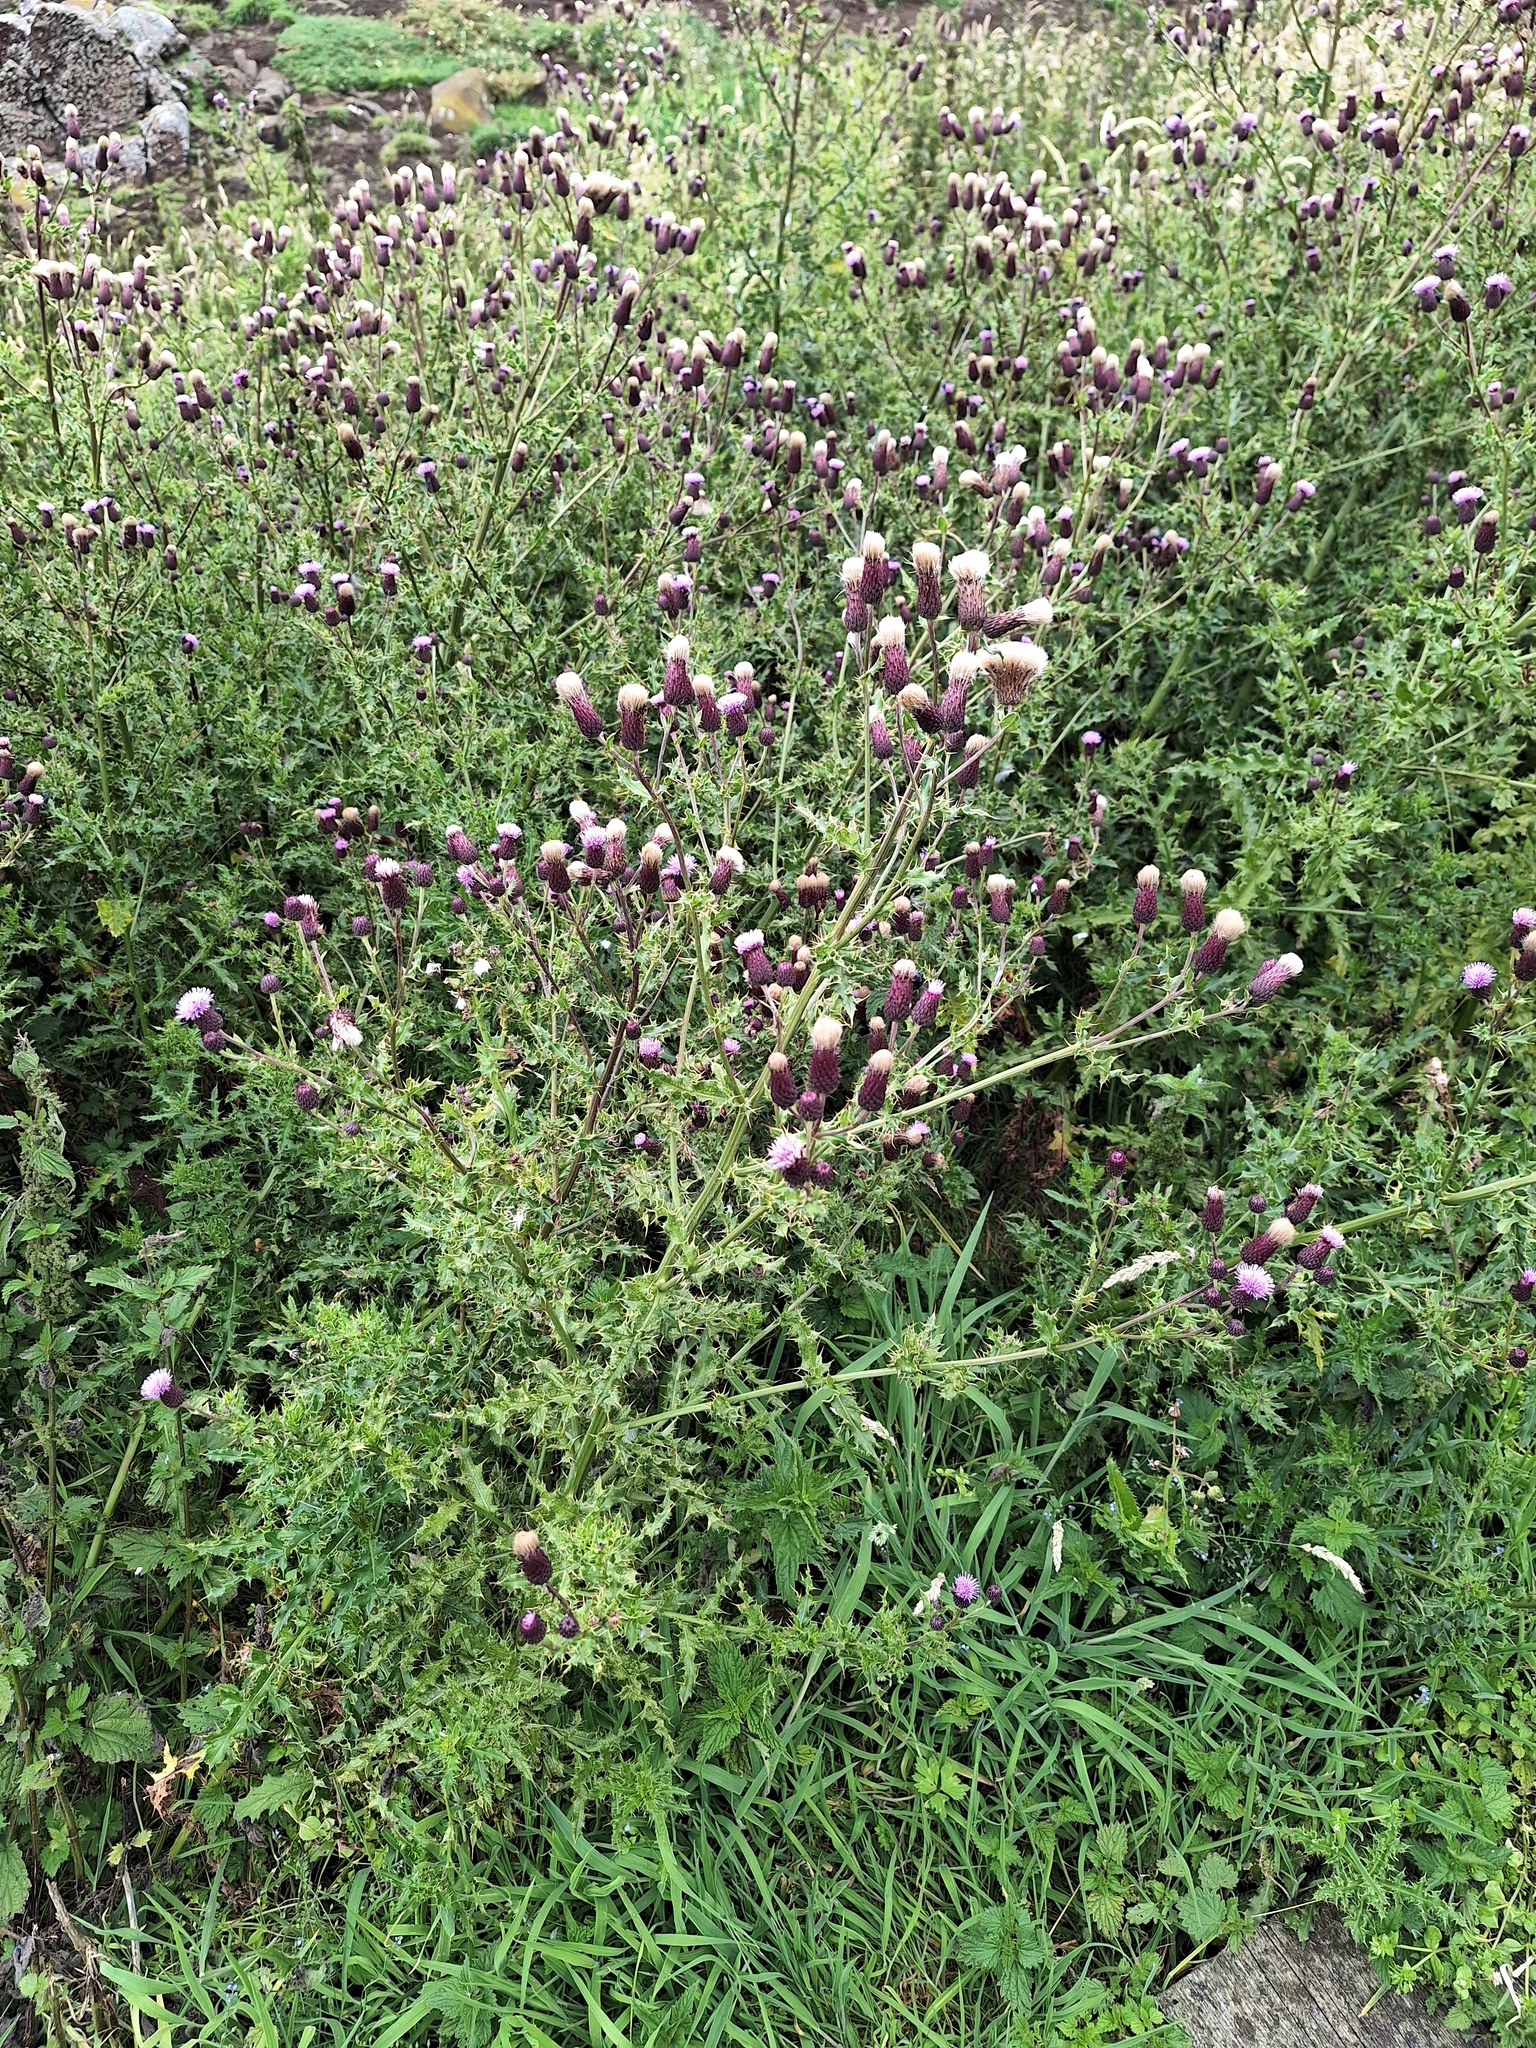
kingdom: Plantae
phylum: Tracheophyta
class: Magnoliopsida
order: Asterales
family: Asteraceae
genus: Cirsium
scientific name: Cirsium arvense
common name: Creeping thistle
